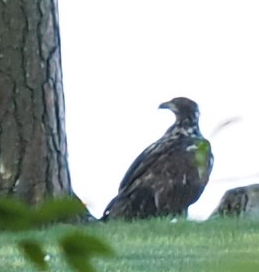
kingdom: Animalia
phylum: Chordata
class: Aves
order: Accipitriformes
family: Accipitridae
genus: Haliaeetus
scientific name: Haliaeetus leucocephalus
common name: Bald eagle
